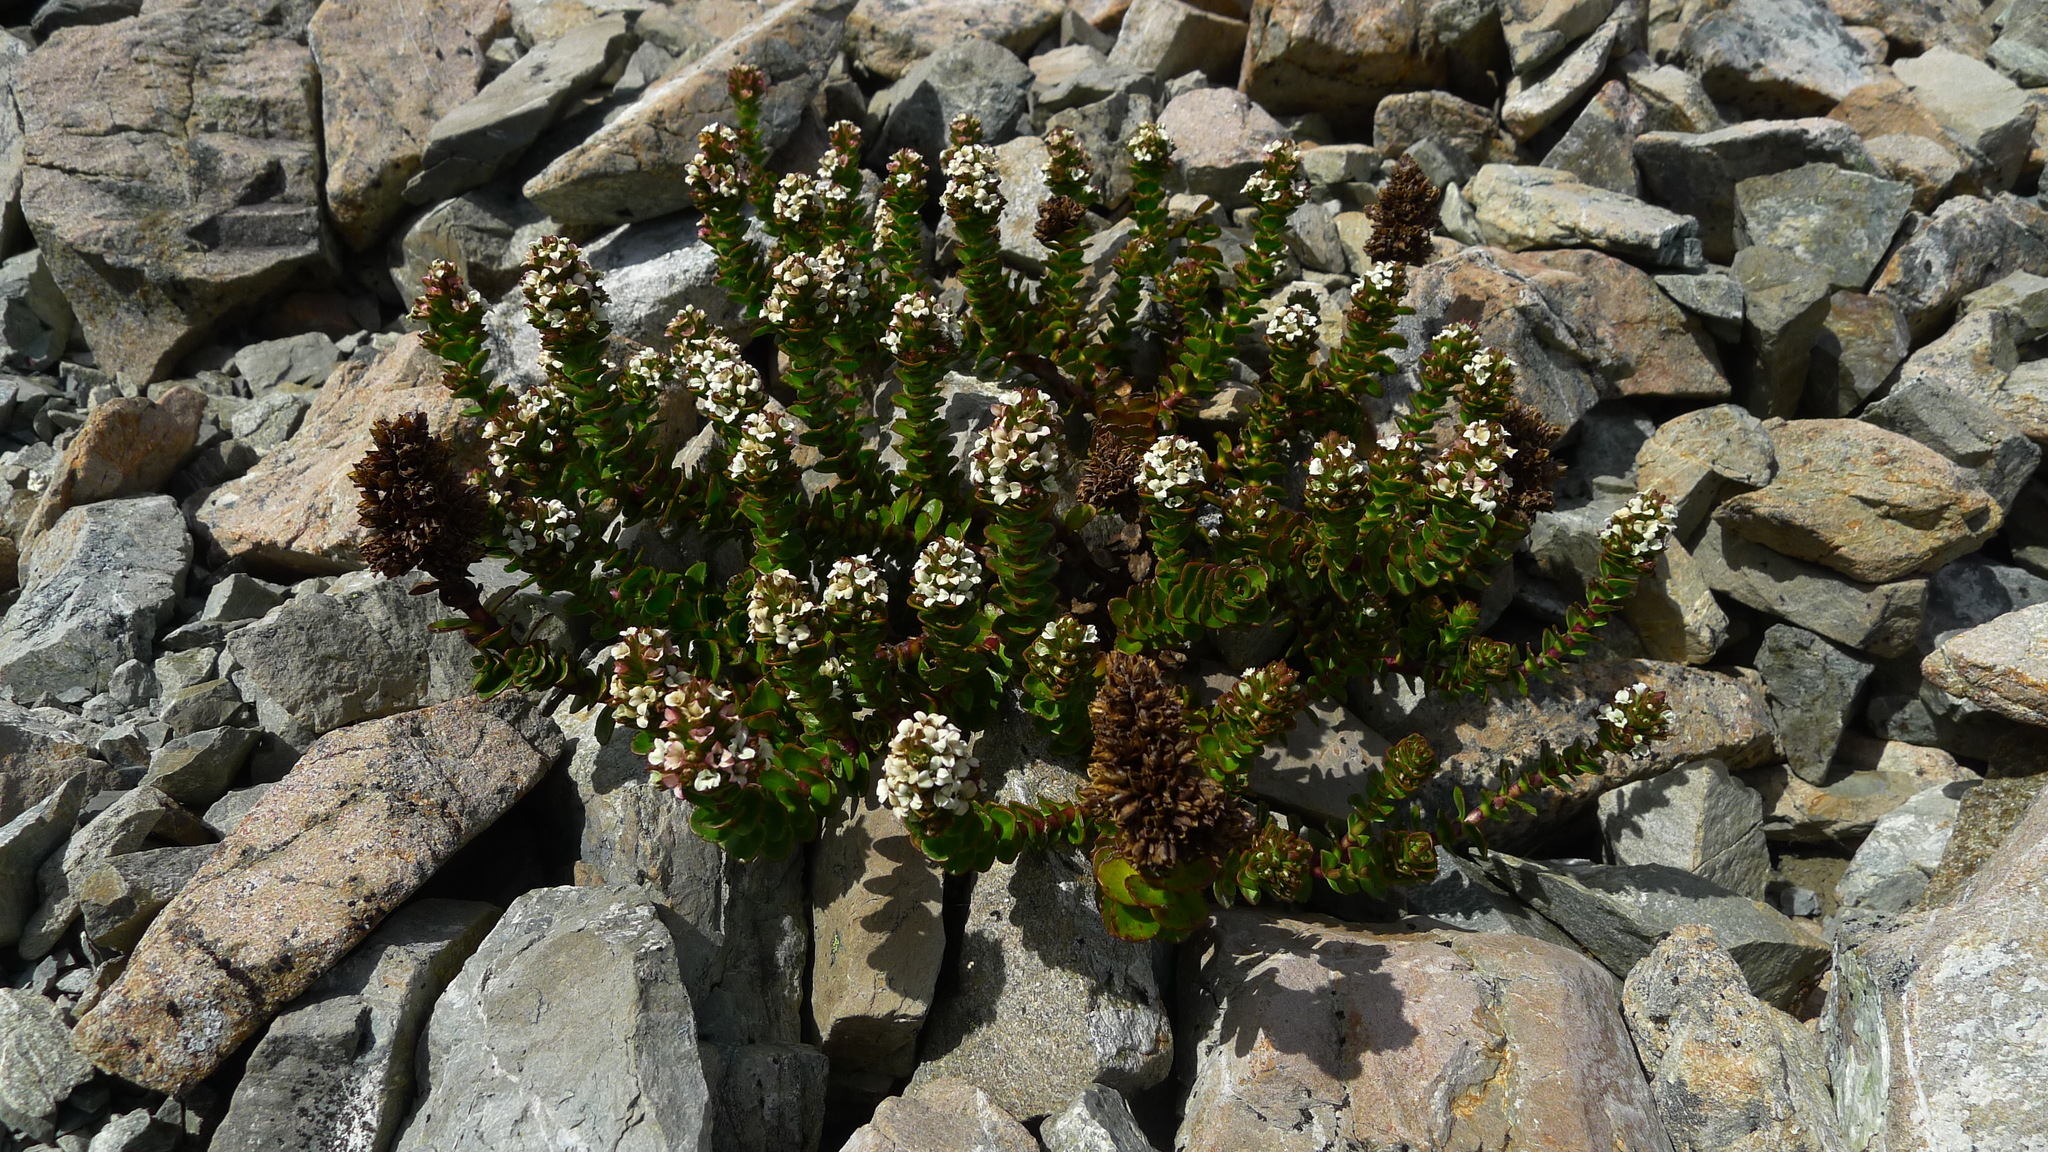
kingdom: Plantae
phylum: Tracheophyta
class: Magnoliopsida
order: Lamiales
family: Plantaginaceae
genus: Veronica
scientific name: Veronica haastii
